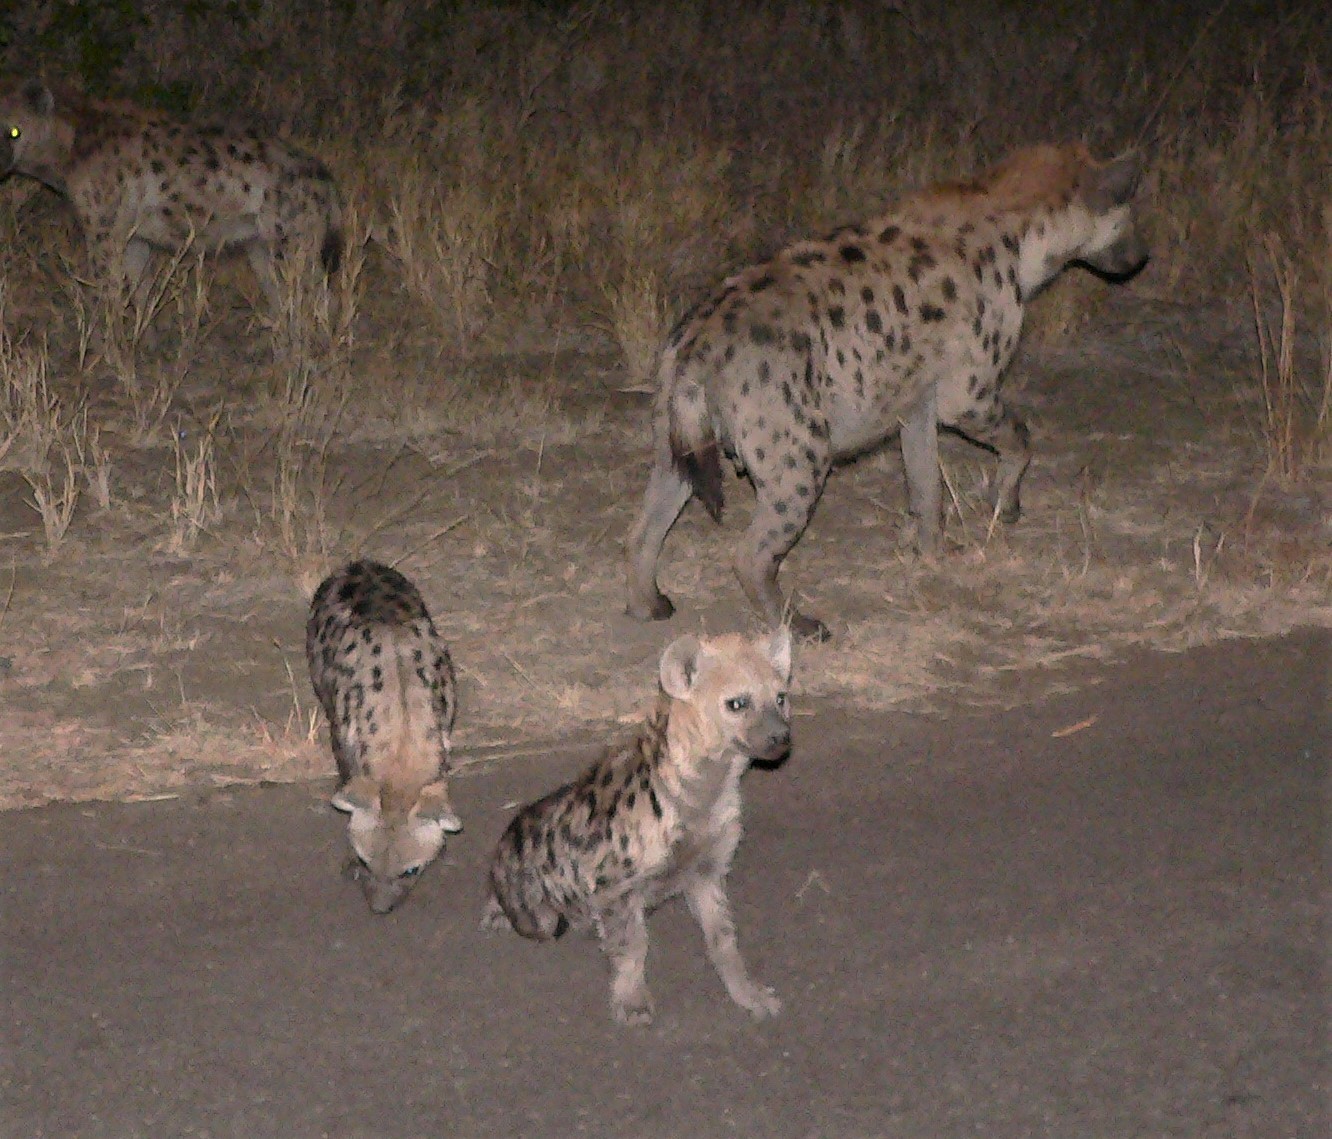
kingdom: Animalia
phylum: Chordata
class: Mammalia
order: Carnivora
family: Hyaenidae
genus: Crocuta
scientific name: Crocuta crocuta
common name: Spotted hyaena
